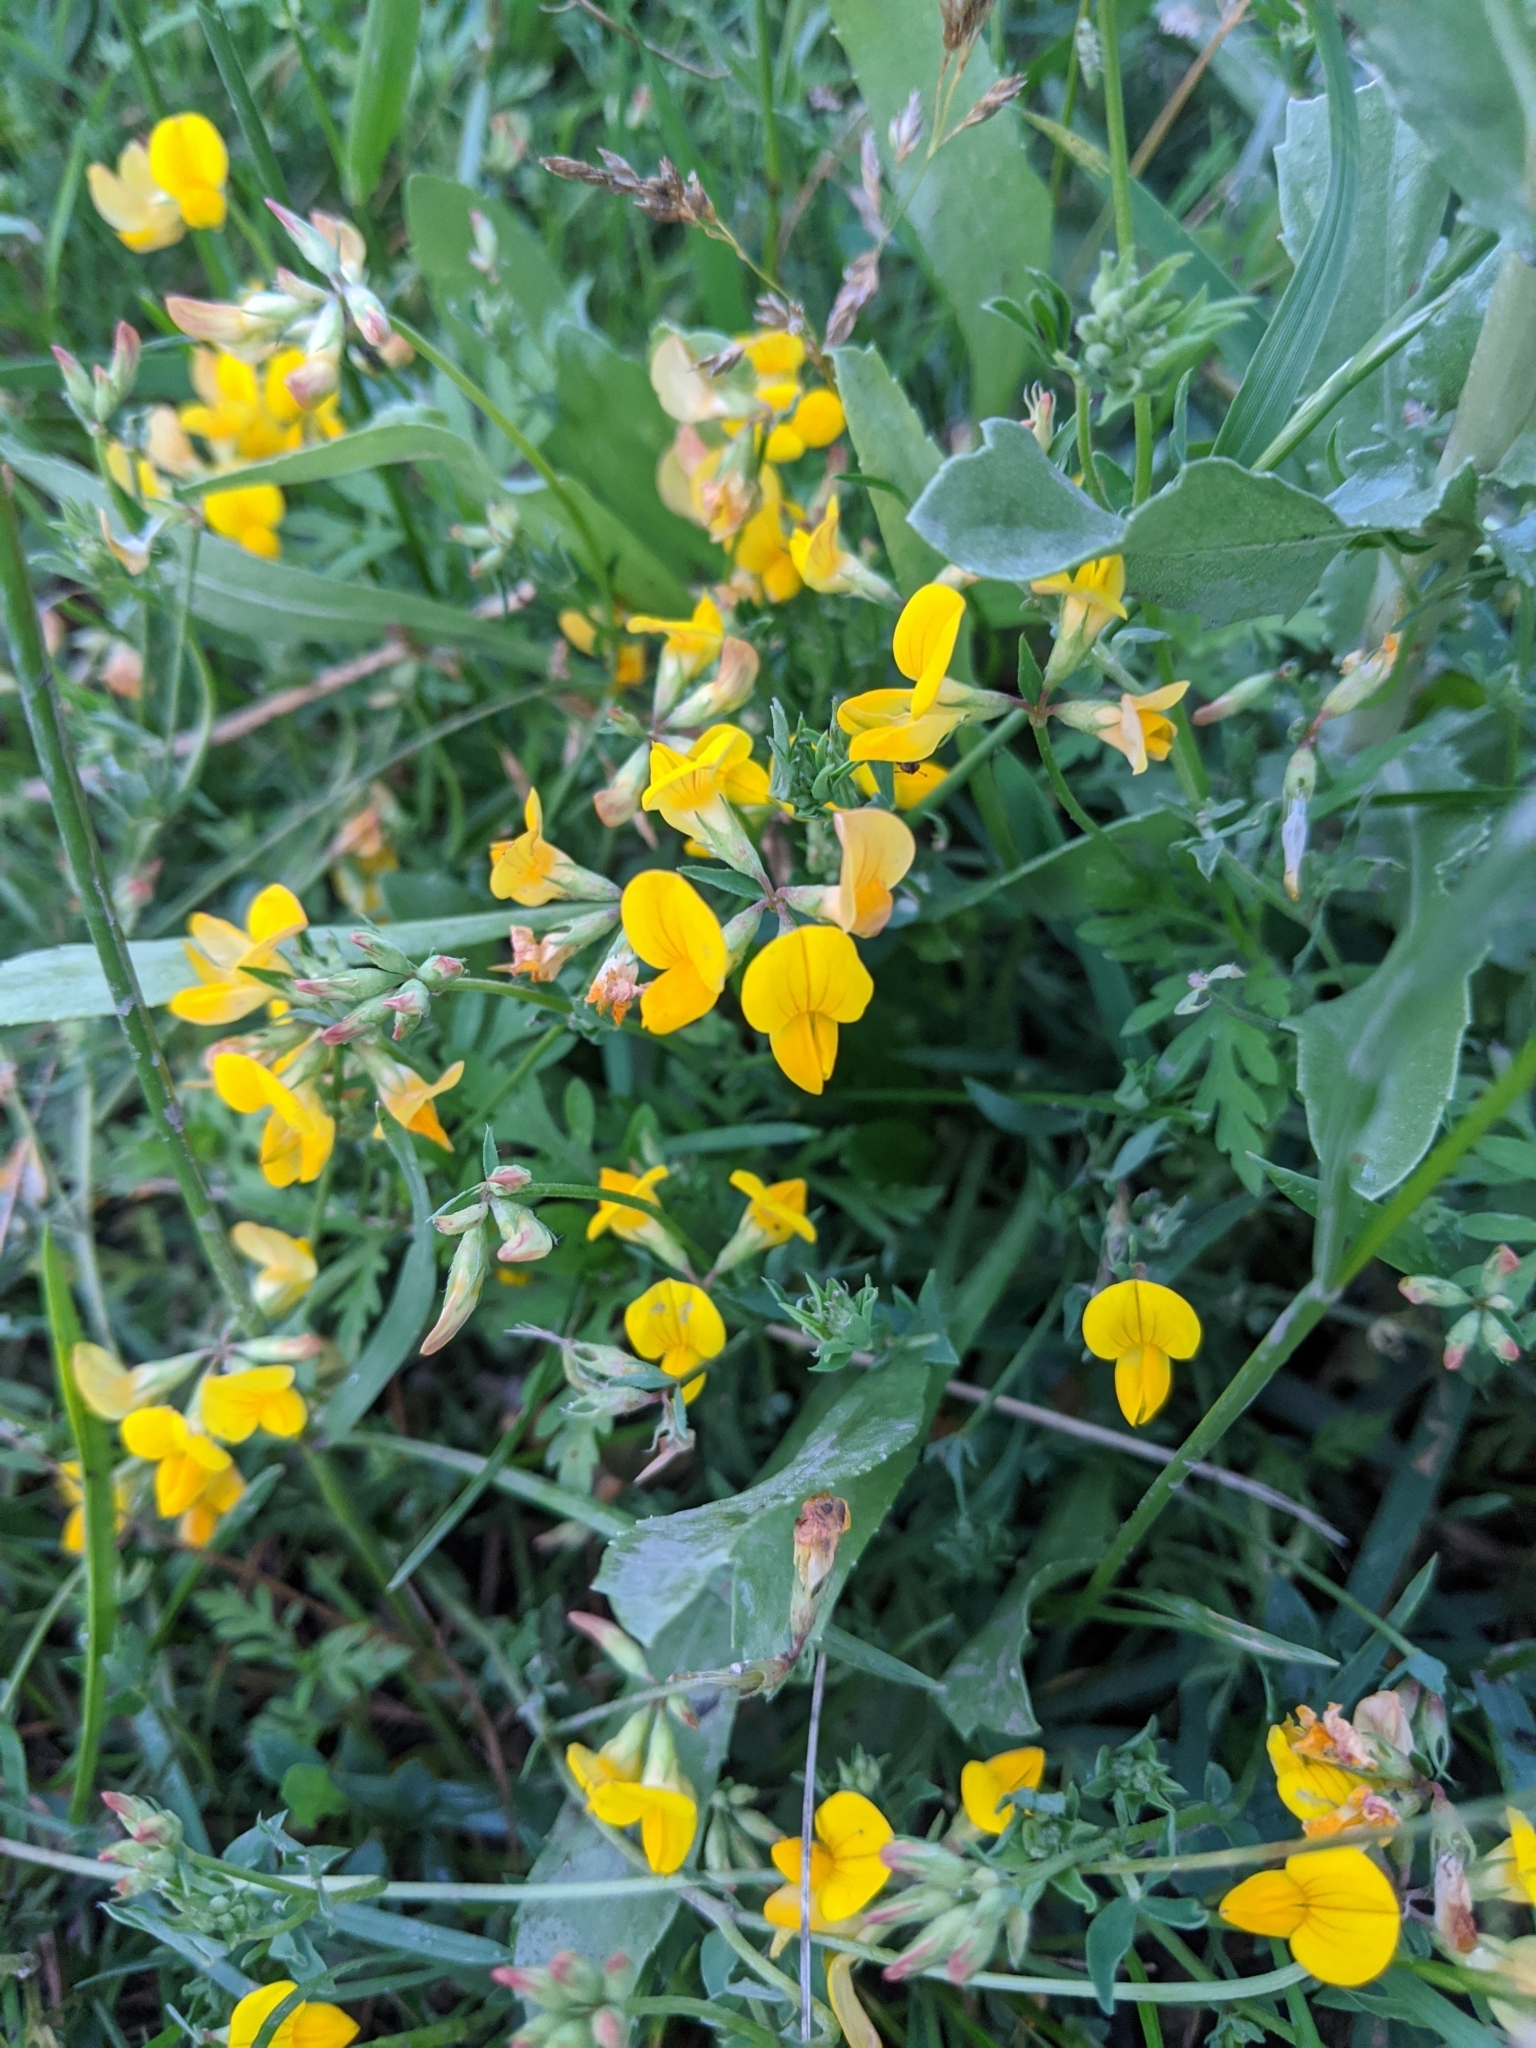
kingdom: Plantae
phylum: Tracheophyta
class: Magnoliopsida
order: Fabales
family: Fabaceae
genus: Lotus
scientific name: Lotus corniculatus
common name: Common bird's-foot-trefoil
